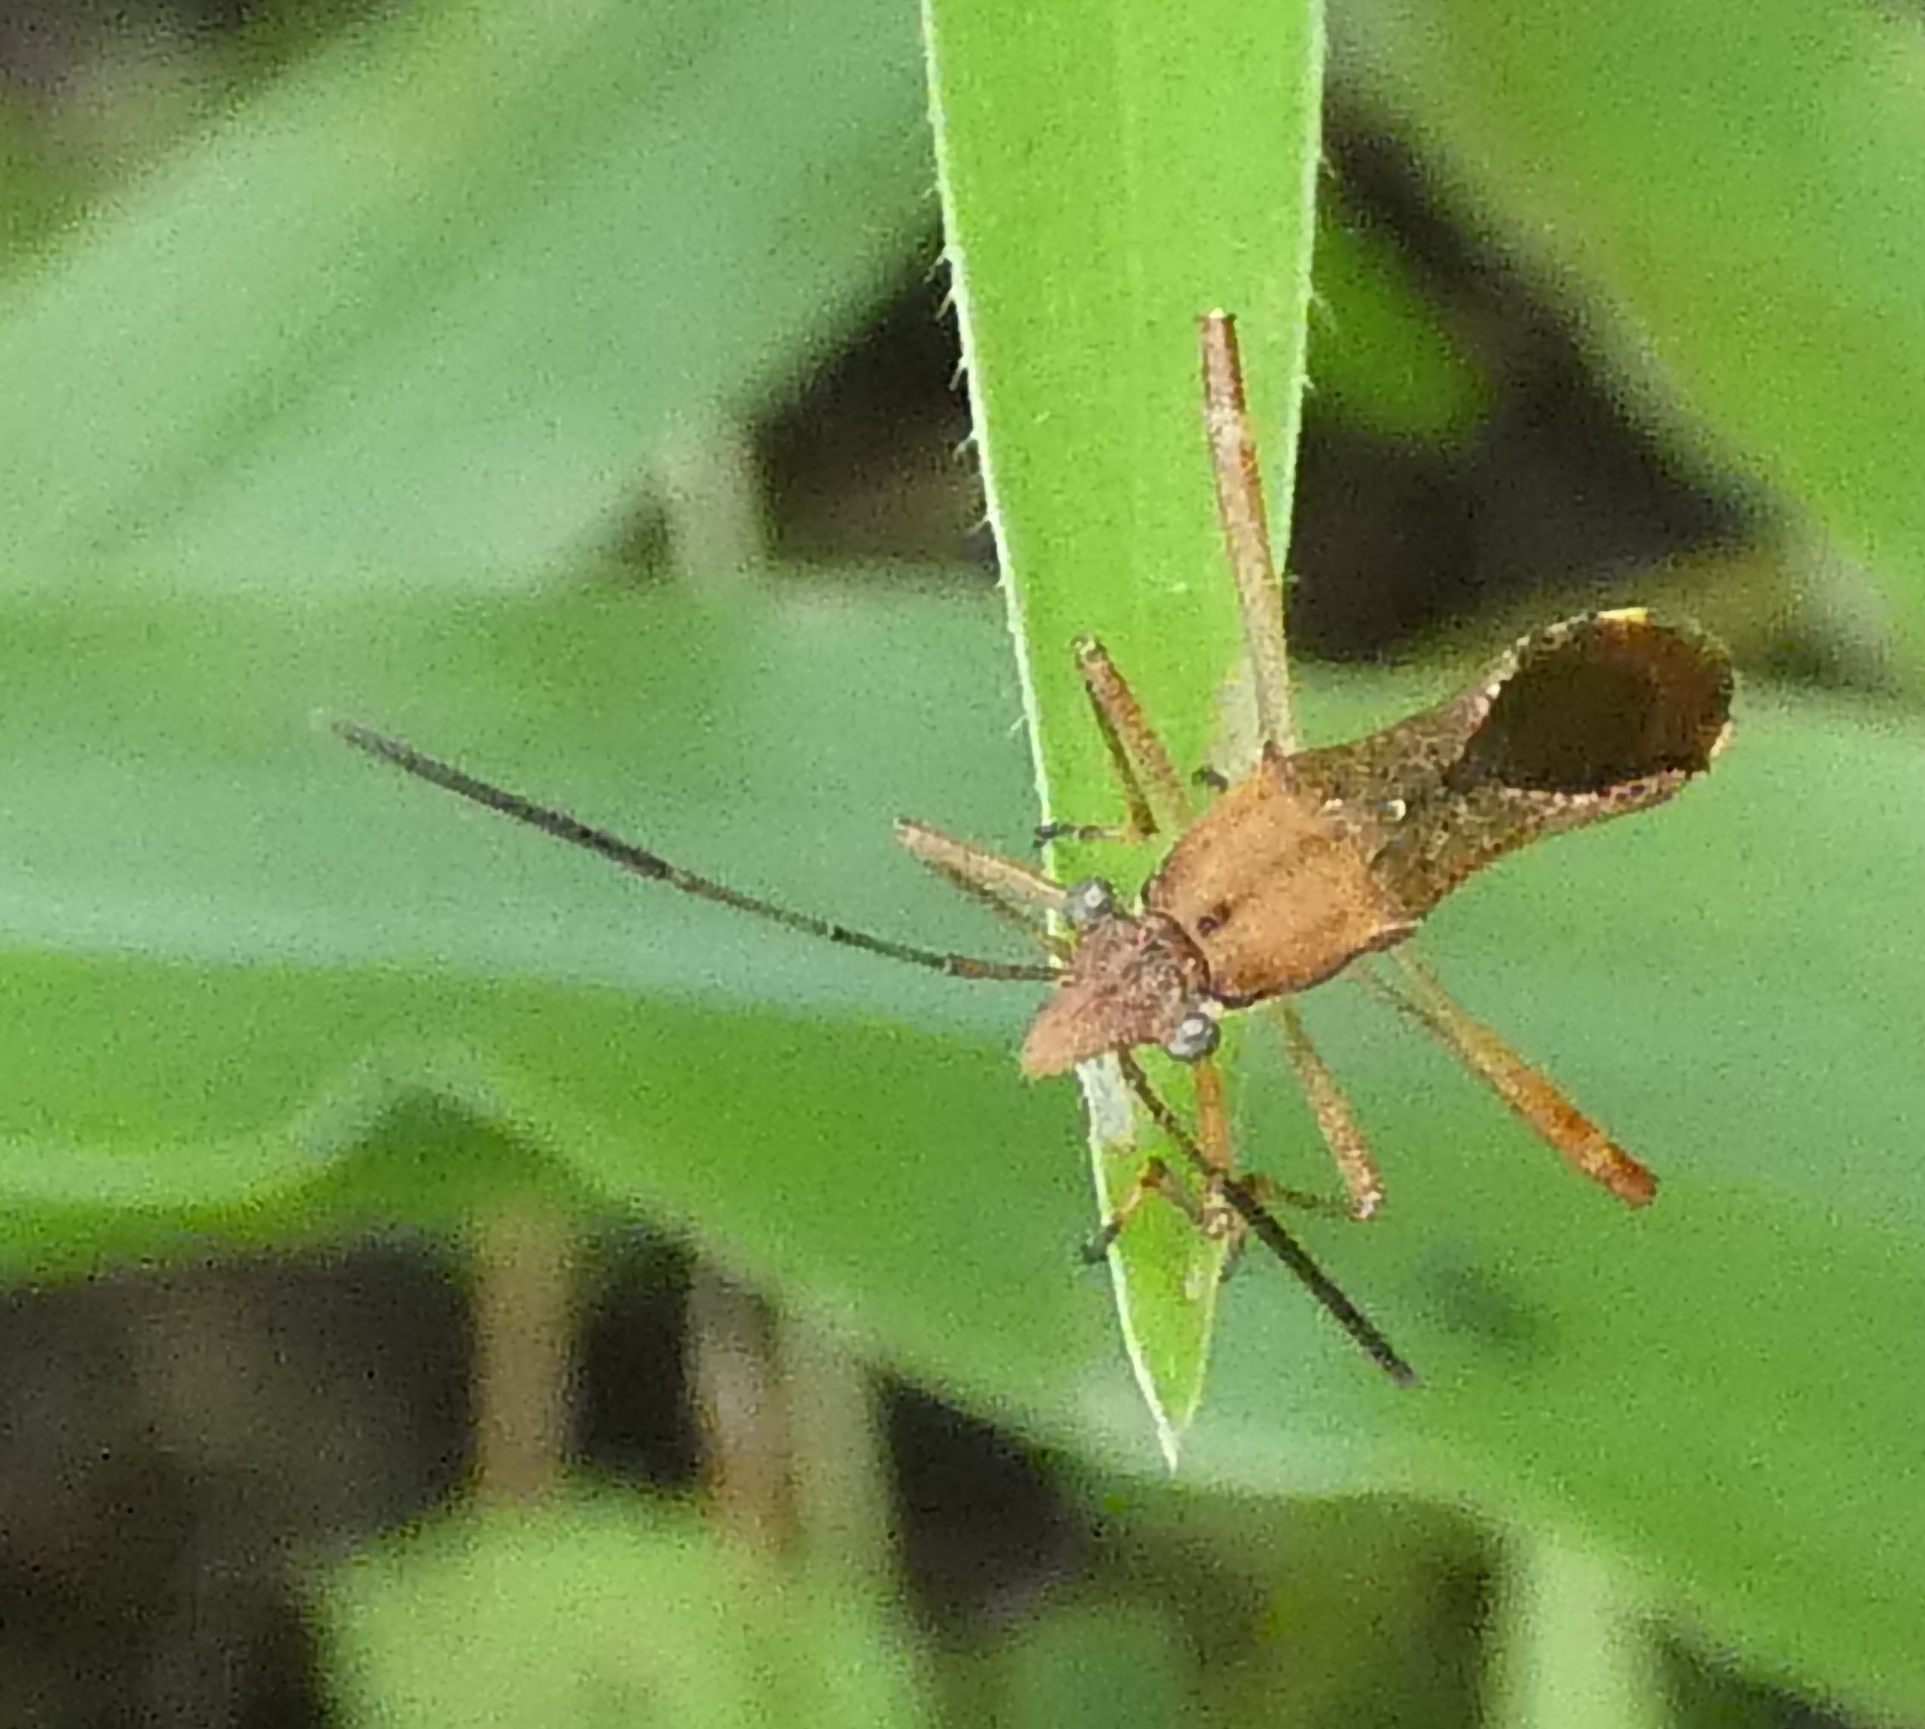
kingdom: Animalia
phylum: Arthropoda
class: Insecta
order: Hemiptera
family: Alydidae
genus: Neomegalotomus
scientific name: Neomegalotomus parvus
